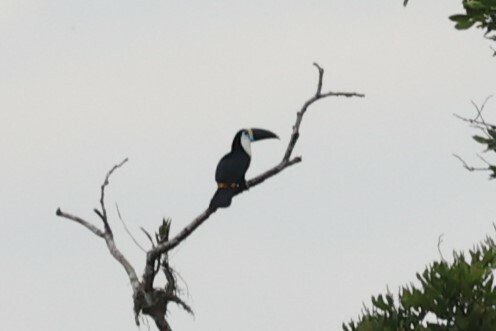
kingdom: Animalia
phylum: Chordata
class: Aves
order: Piciformes
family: Ramphastidae
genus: Ramphastos
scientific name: Ramphastos tucanus
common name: White-throated toucan
